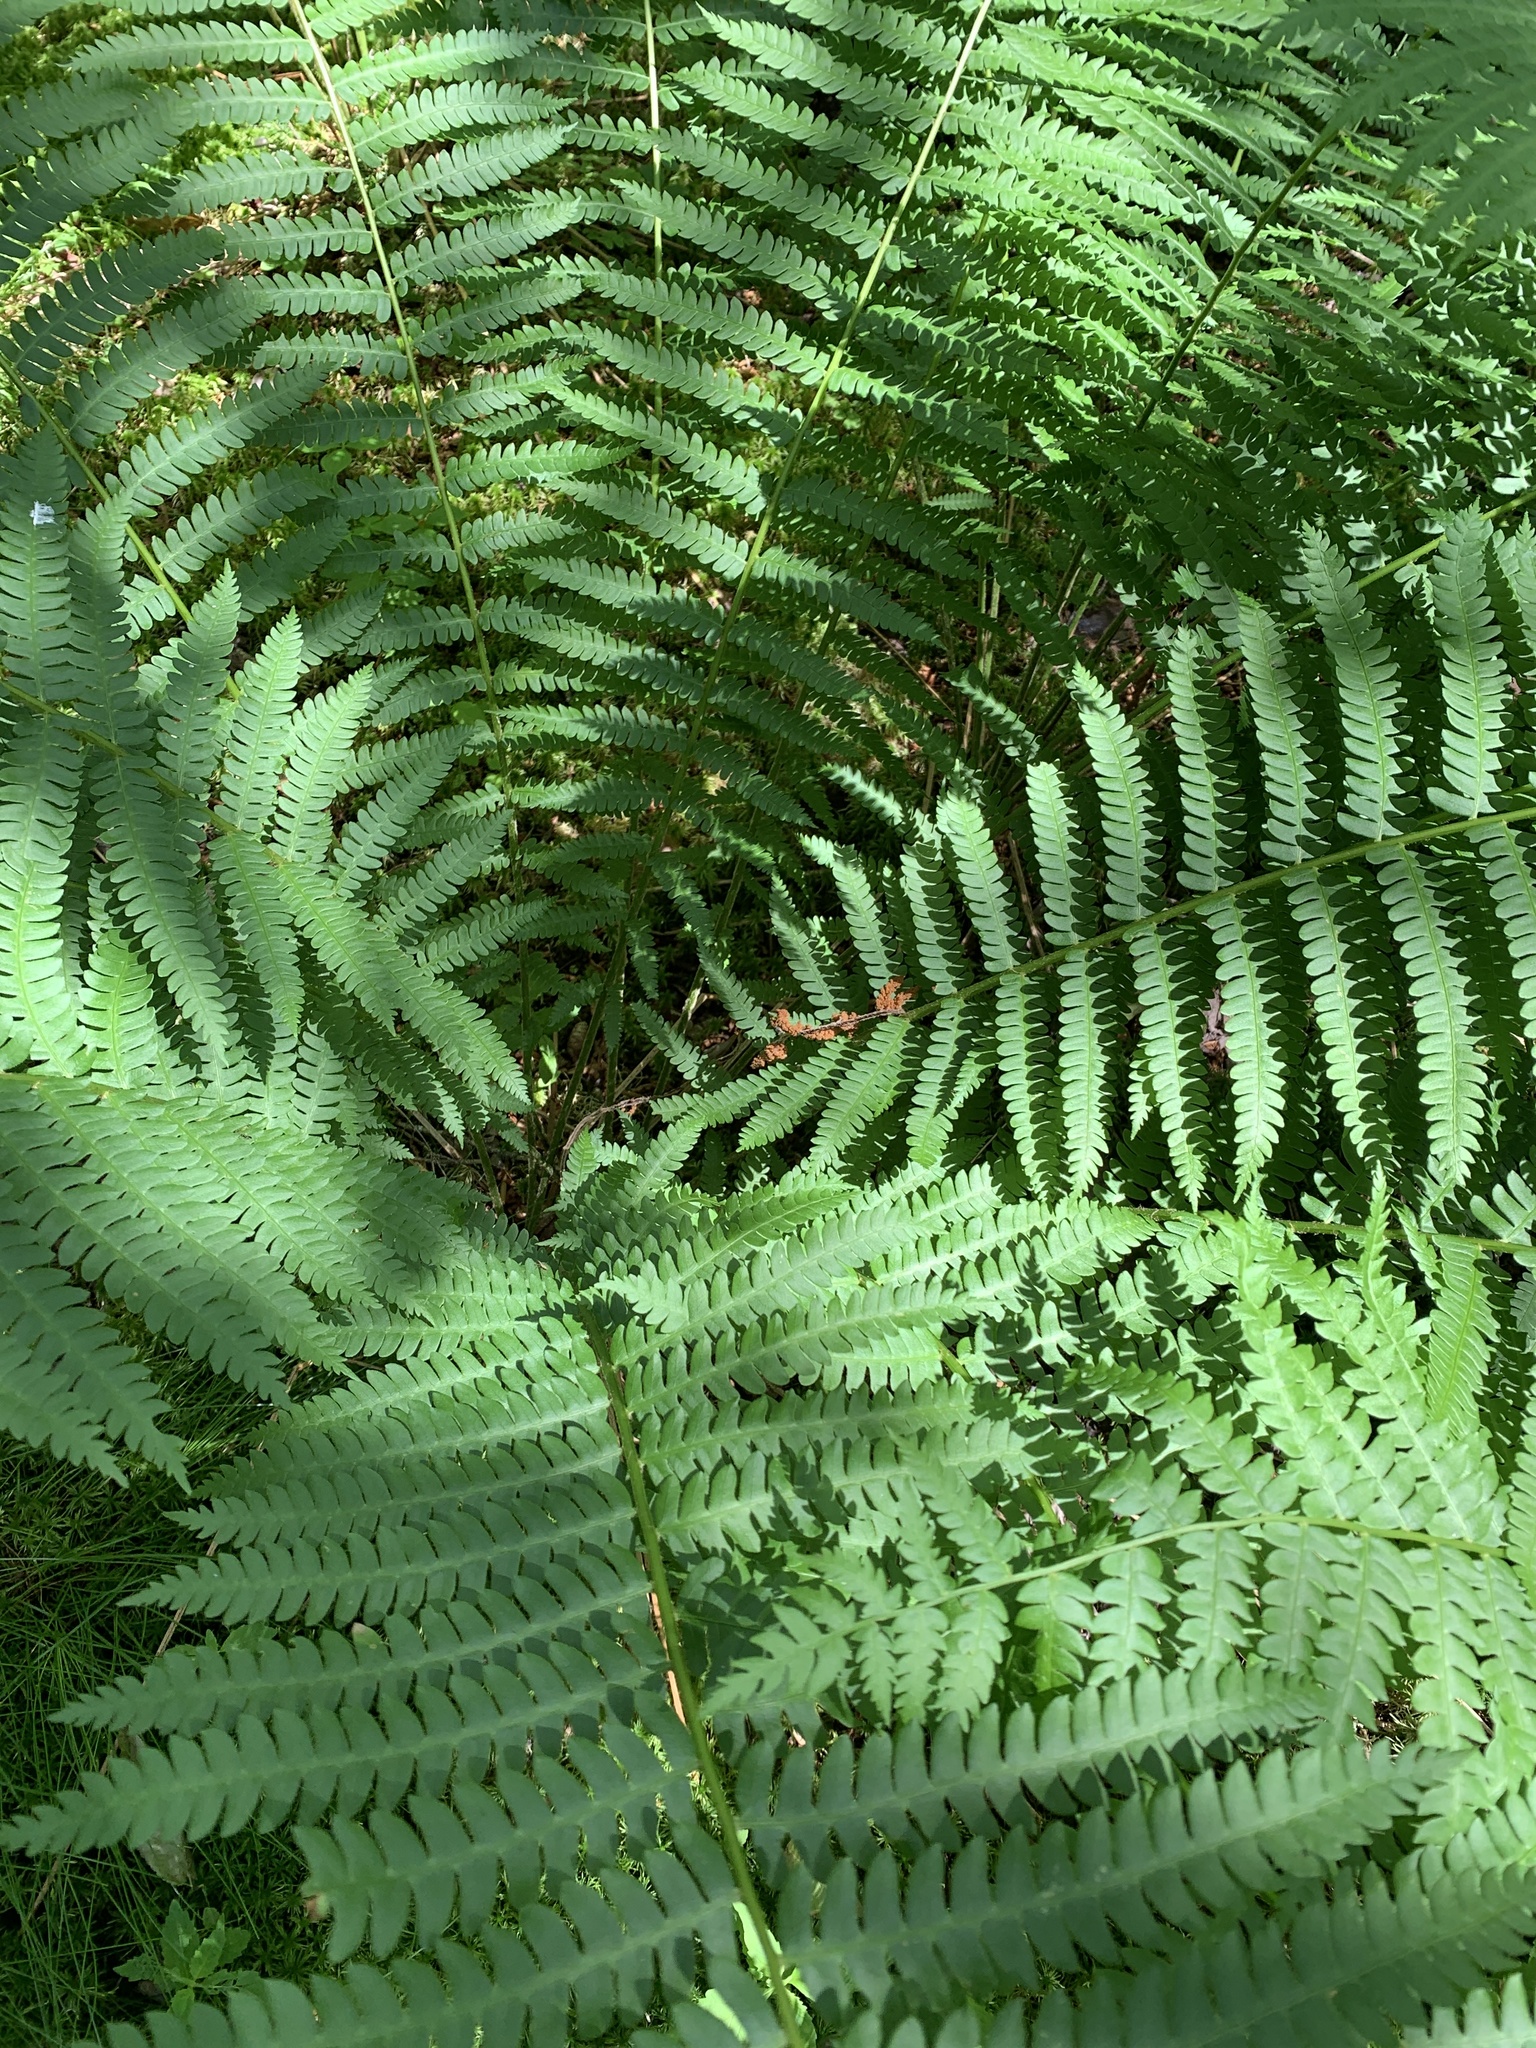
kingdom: Plantae
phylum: Tracheophyta
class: Polypodiopsida
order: Osmundales
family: Osmundaceae
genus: Osmundastrum
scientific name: Osmundastrum cinnamomeum
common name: Cinnamon fern
